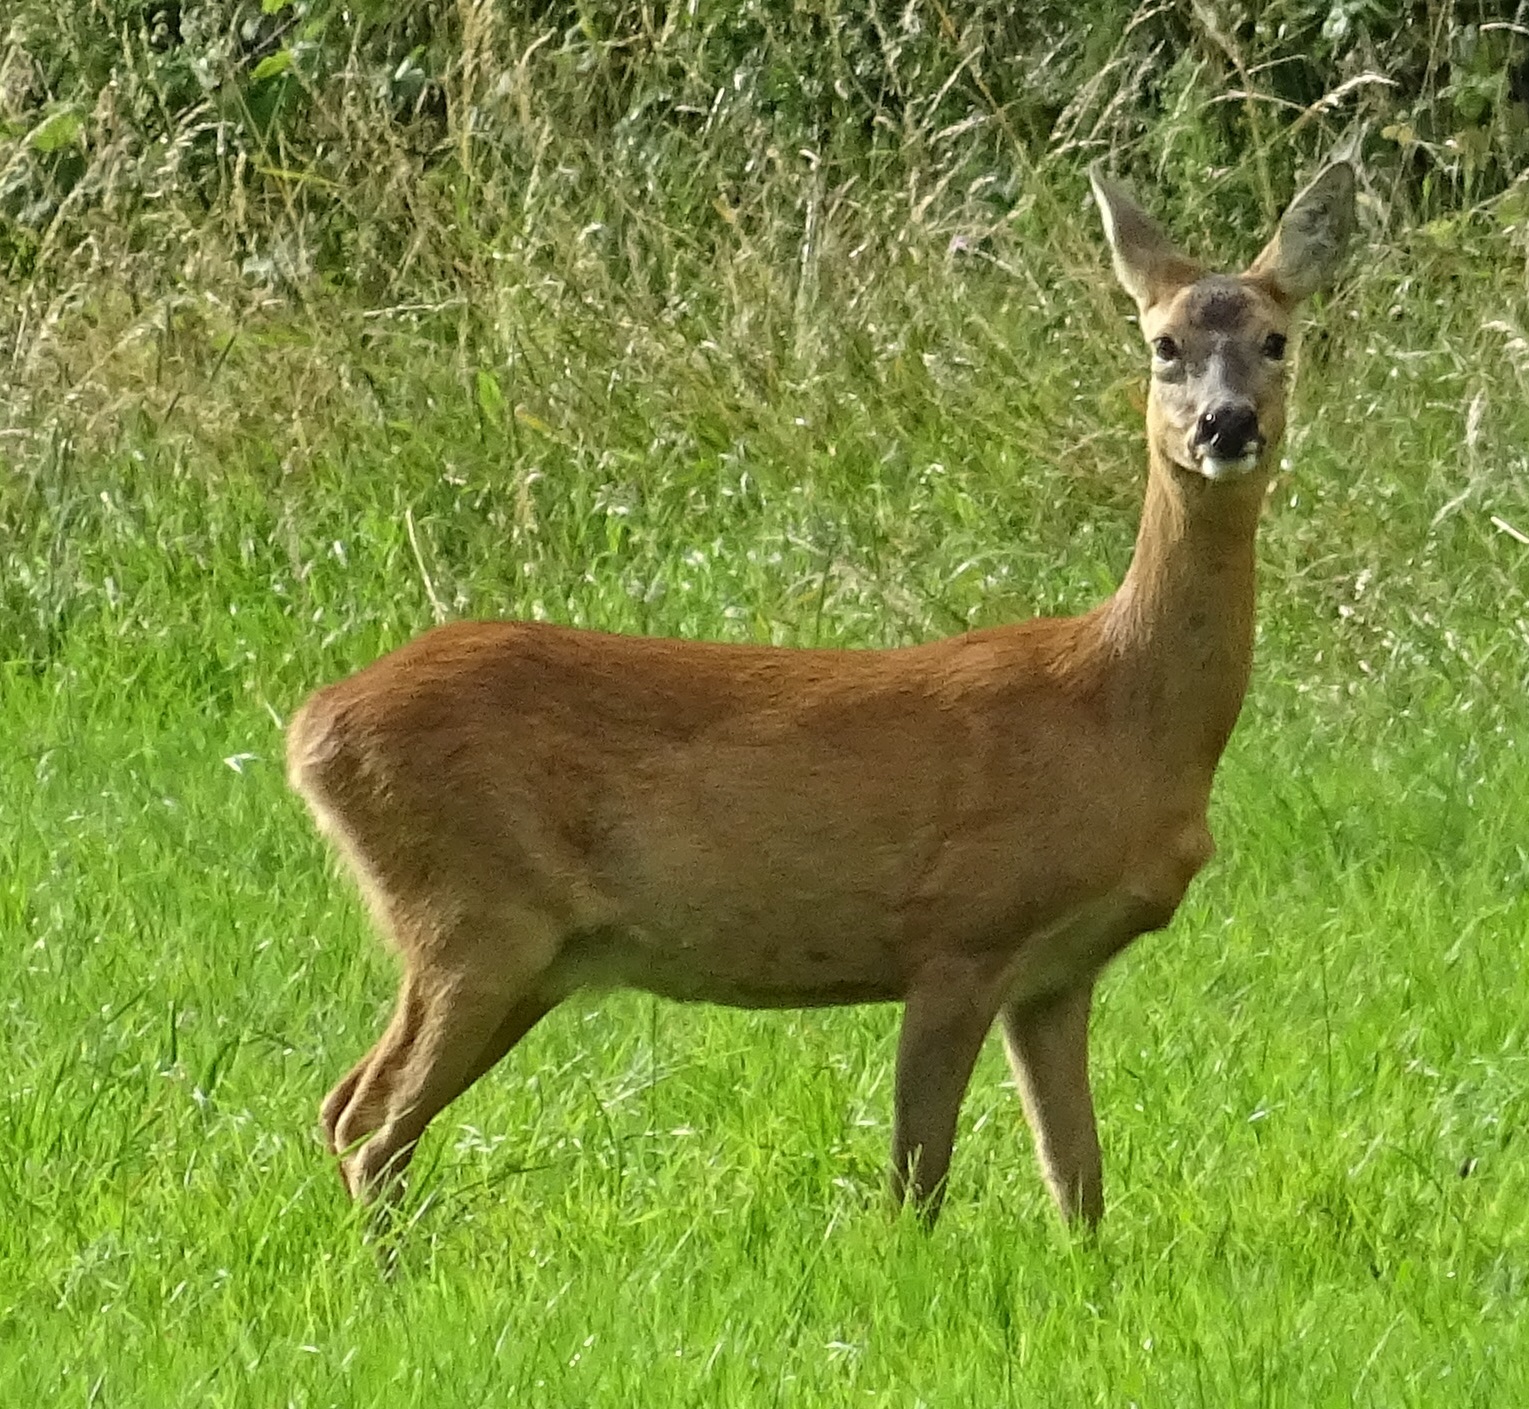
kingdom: Animalia
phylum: Chordata
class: Mammalia
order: Artiodactyla
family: Cervidae
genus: Capreolus
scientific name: Capreolus capreolus
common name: Western roe deer
